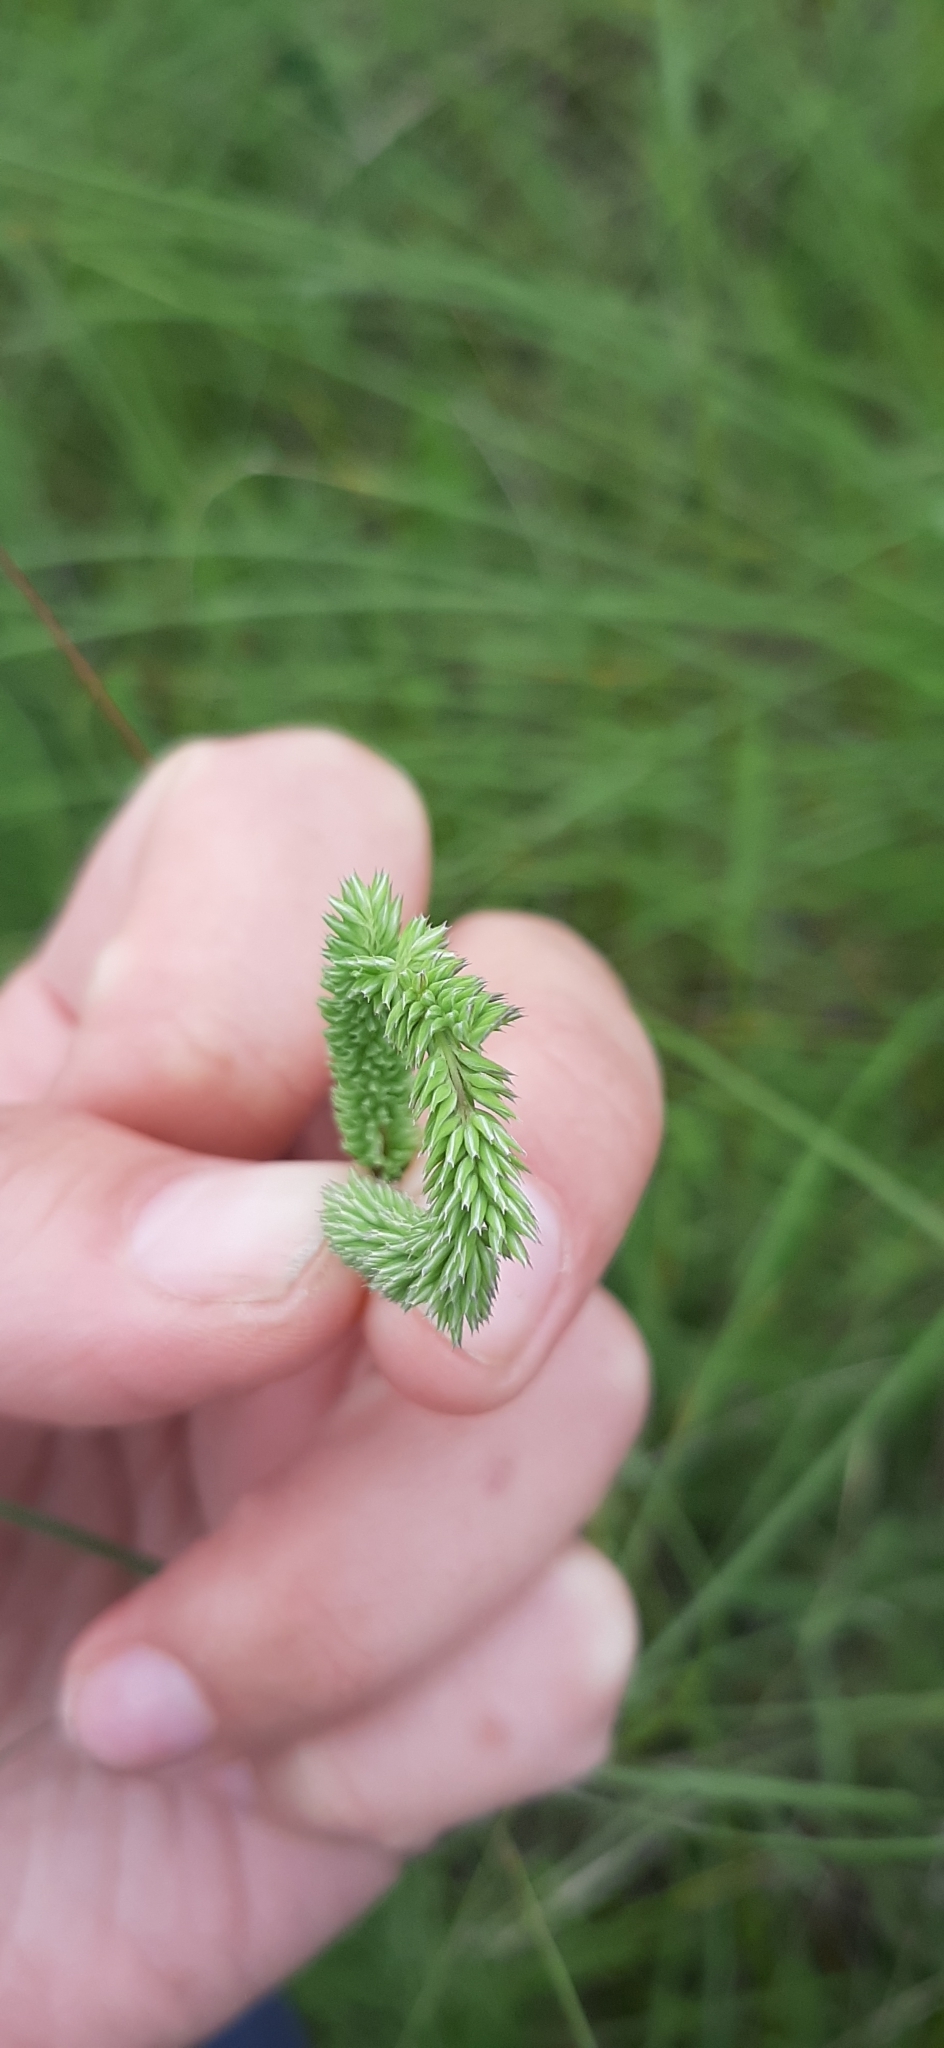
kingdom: Plantae
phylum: Tracheophyta
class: Liliopsida
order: Poales
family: Poaceae
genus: Phleum
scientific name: Phleum phleoides
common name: Purple-stem cat's-tail
